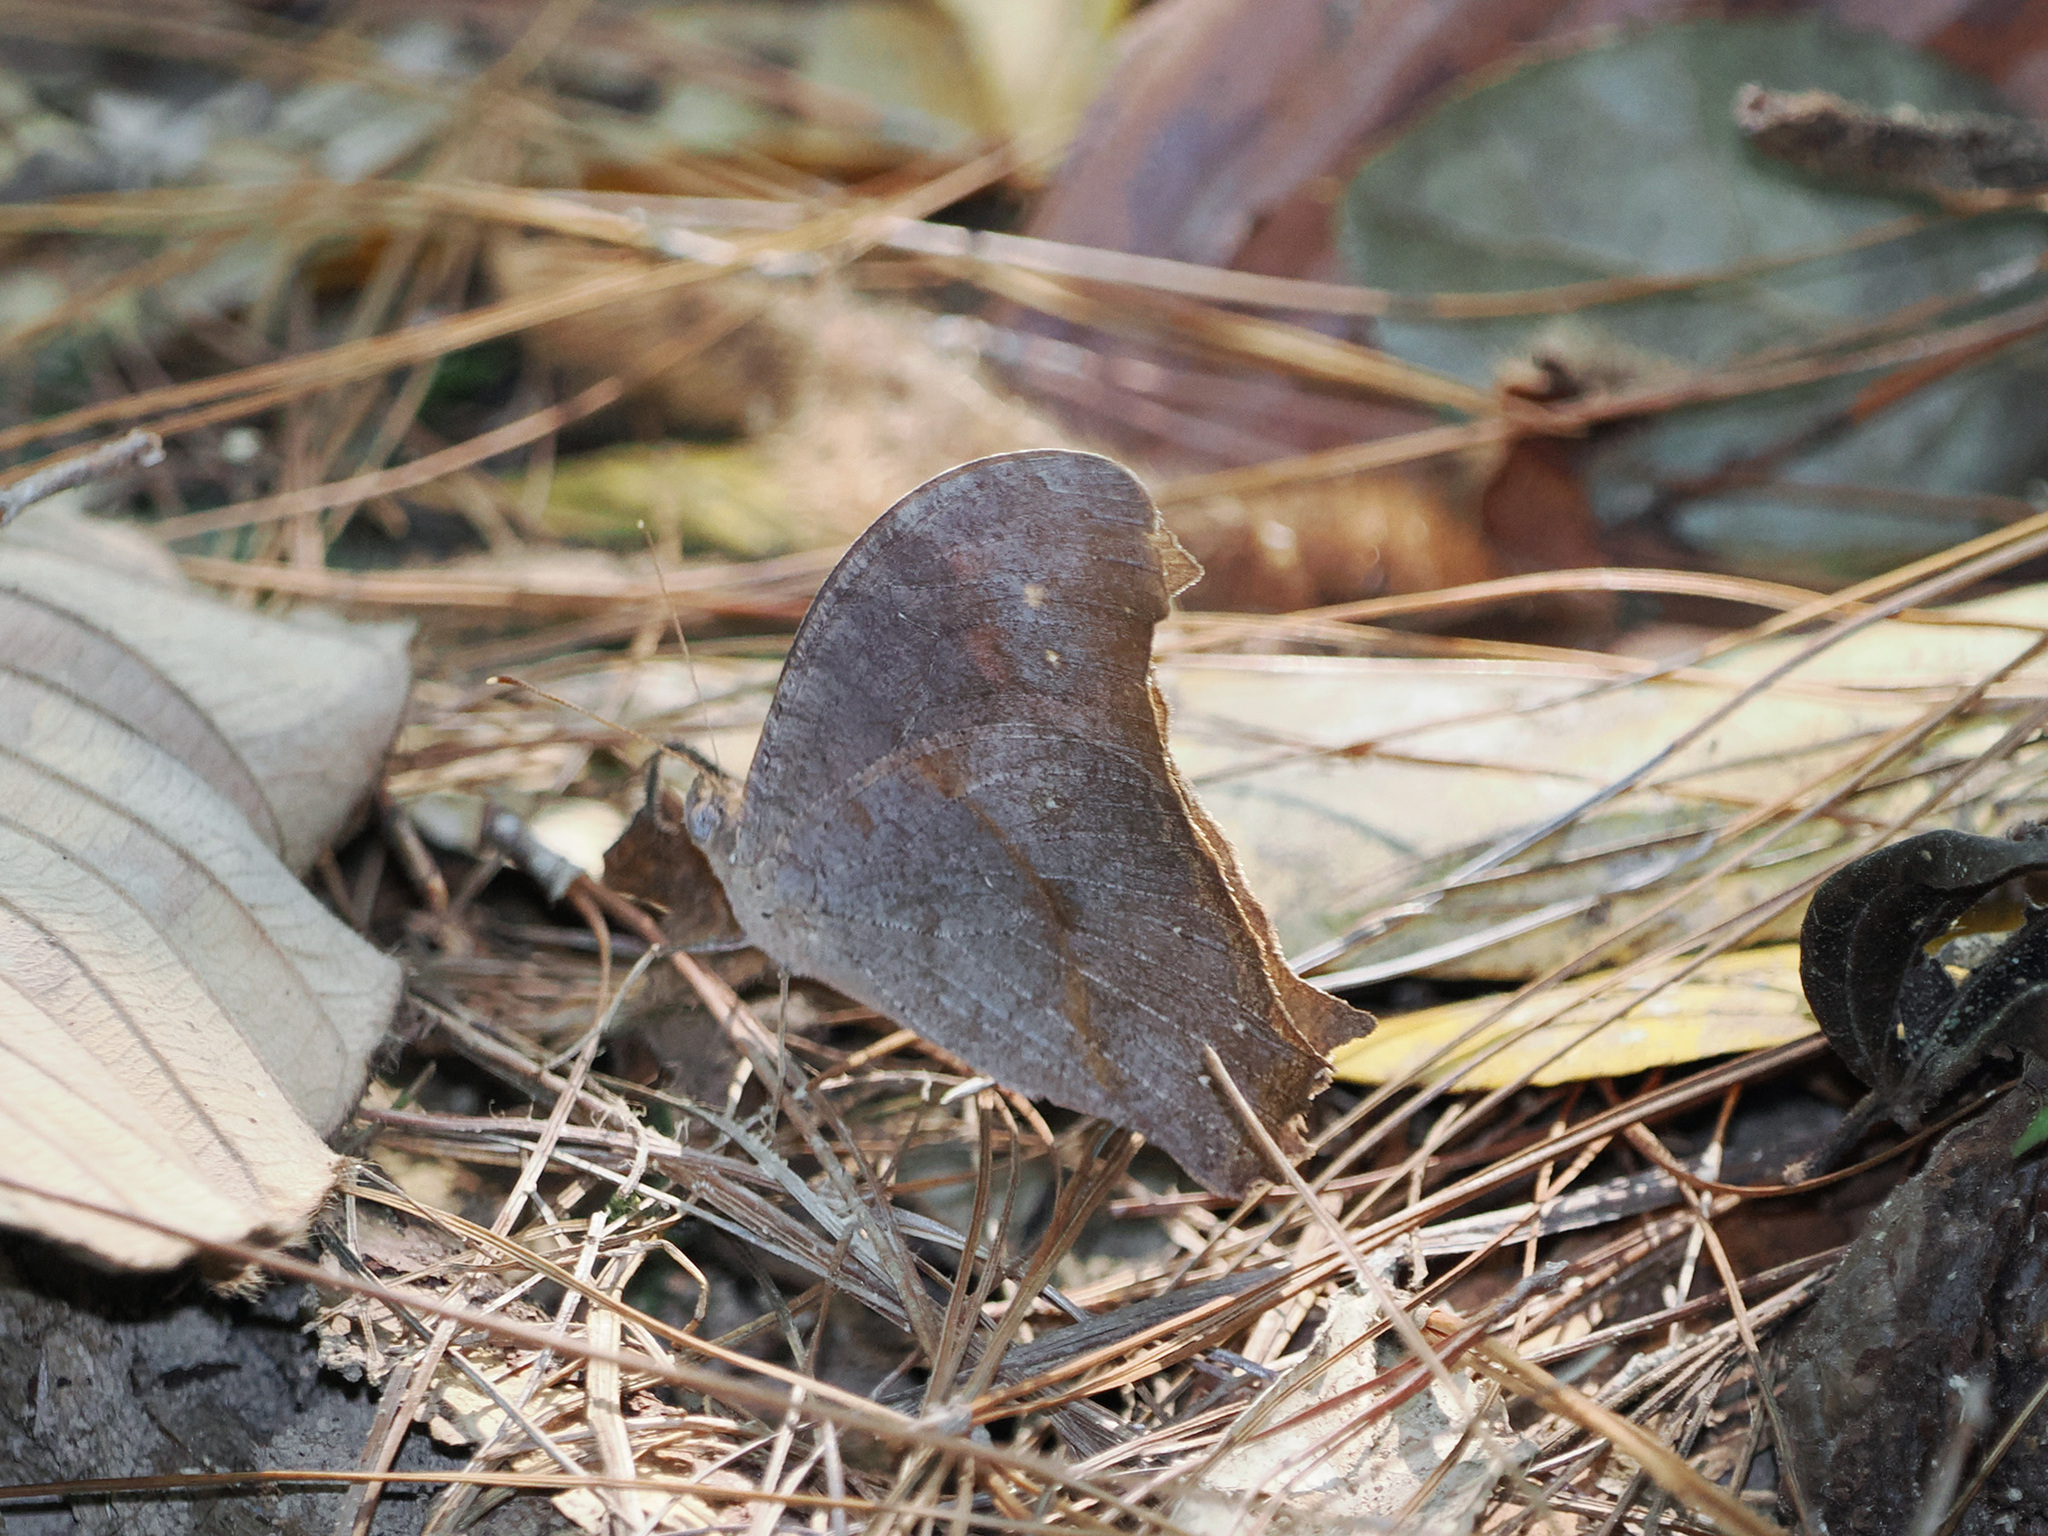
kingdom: Animalia
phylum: Arthropoda
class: Insecta
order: Lepidoptera
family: Nymphalidae
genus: Melanitis
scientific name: Melanitis leda
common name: Twilight brown
